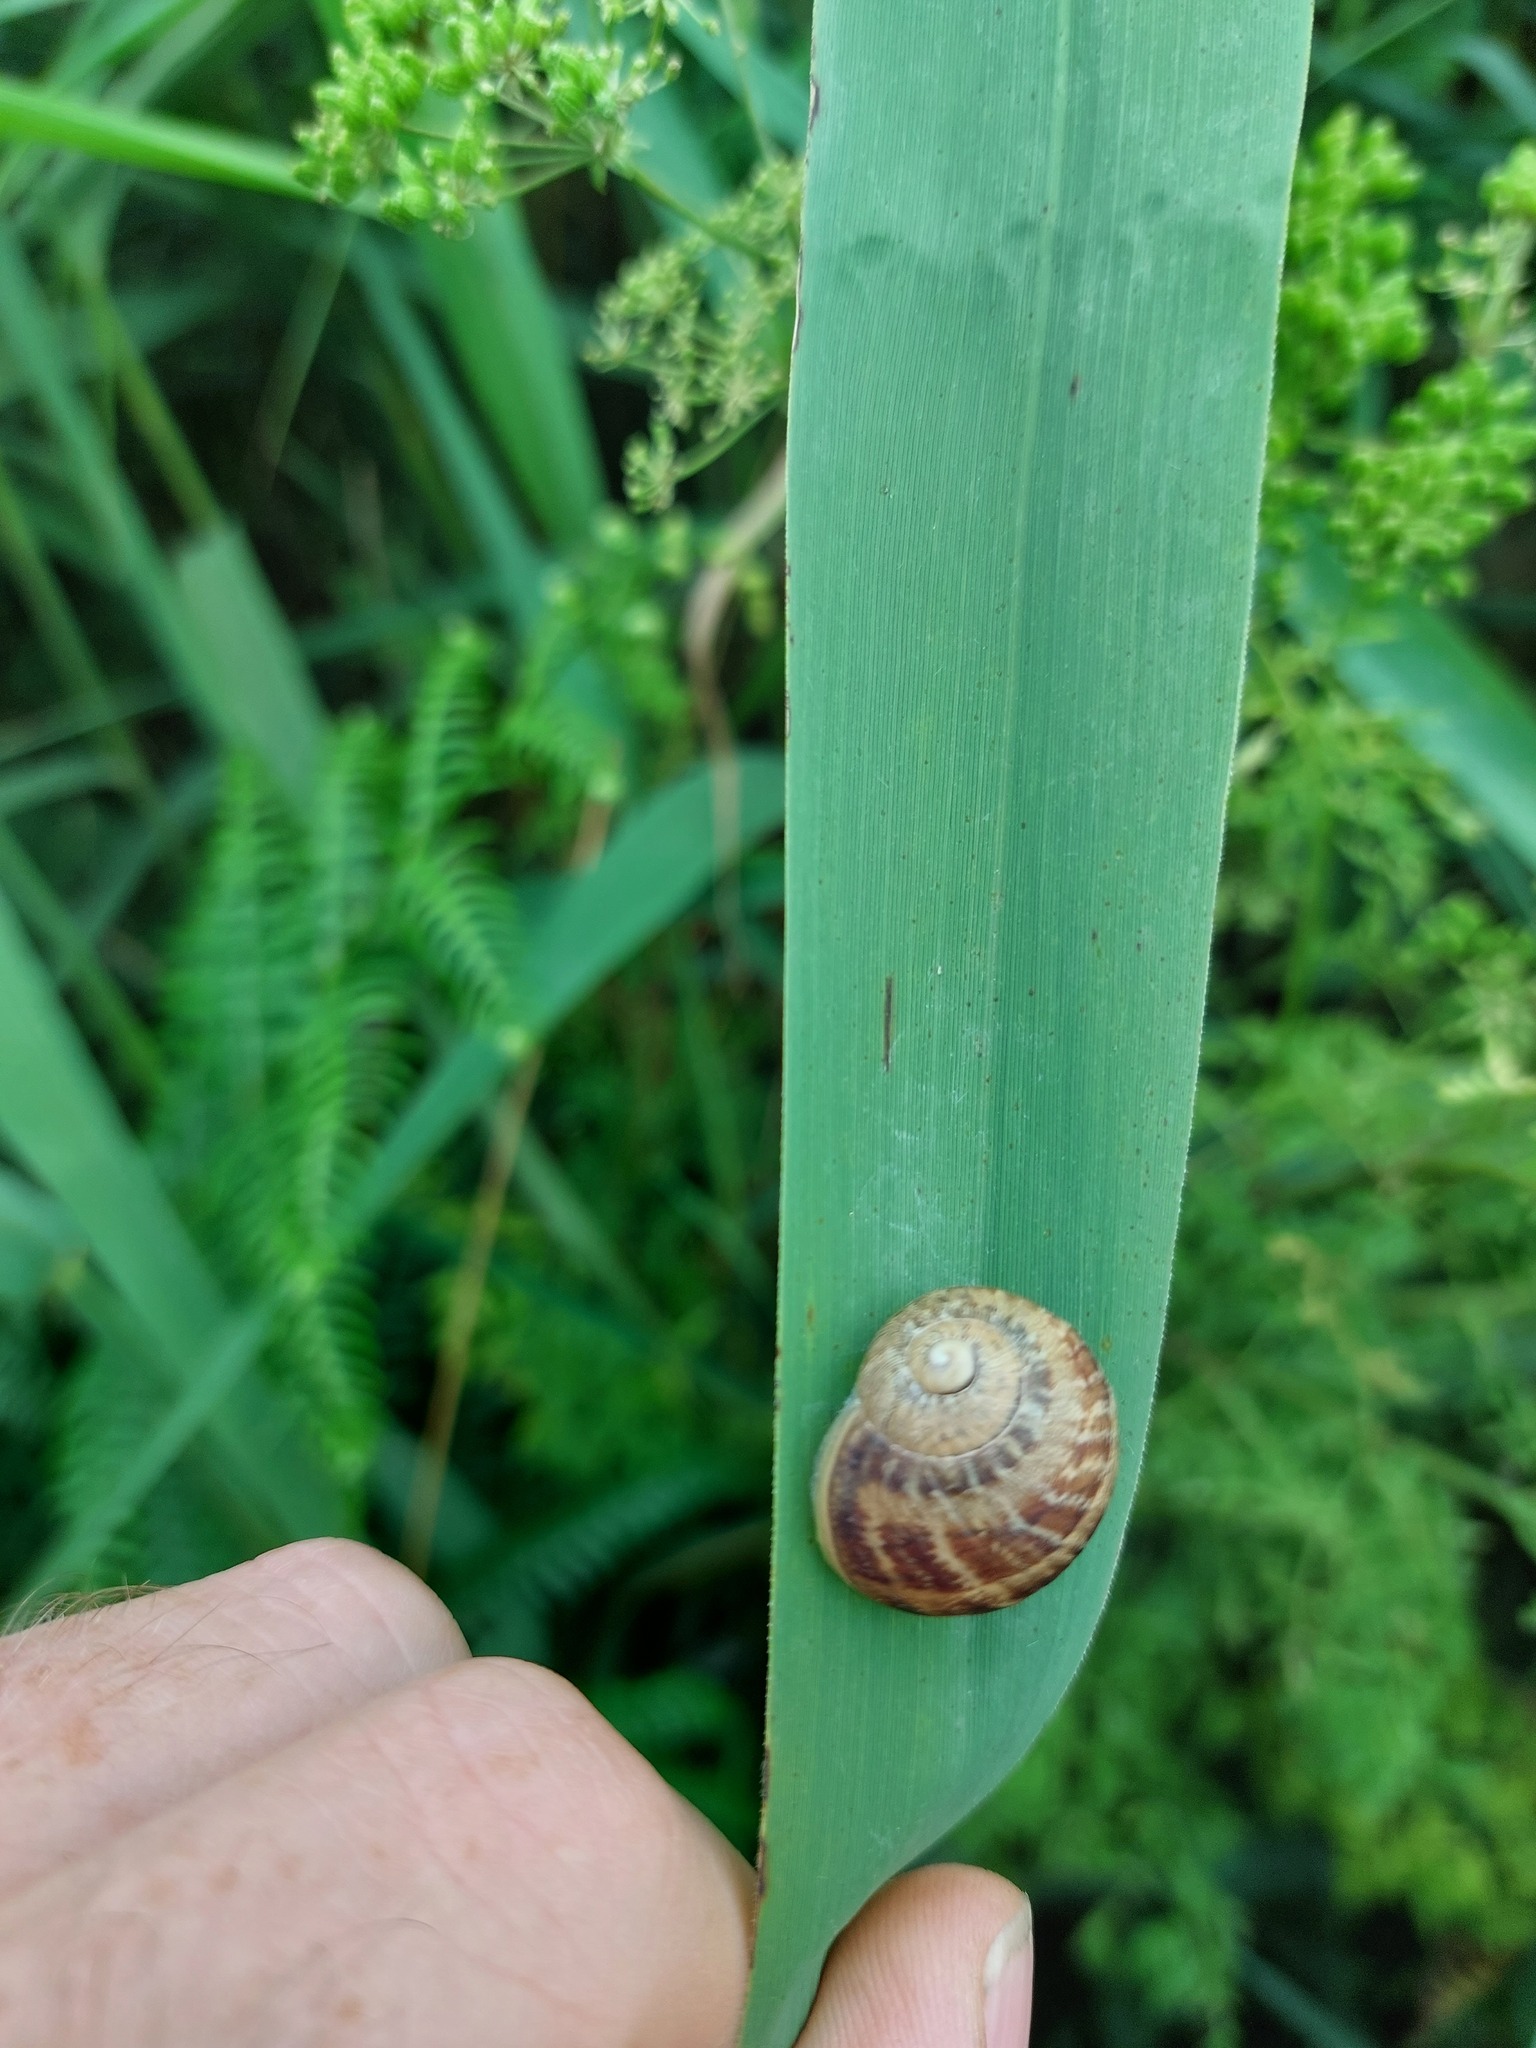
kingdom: Animalia
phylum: Mollusca
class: Gastropoda
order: Stylommatophora
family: Helicidae
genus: Cornu
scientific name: Cornu aspersum
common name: Brown garden snail
